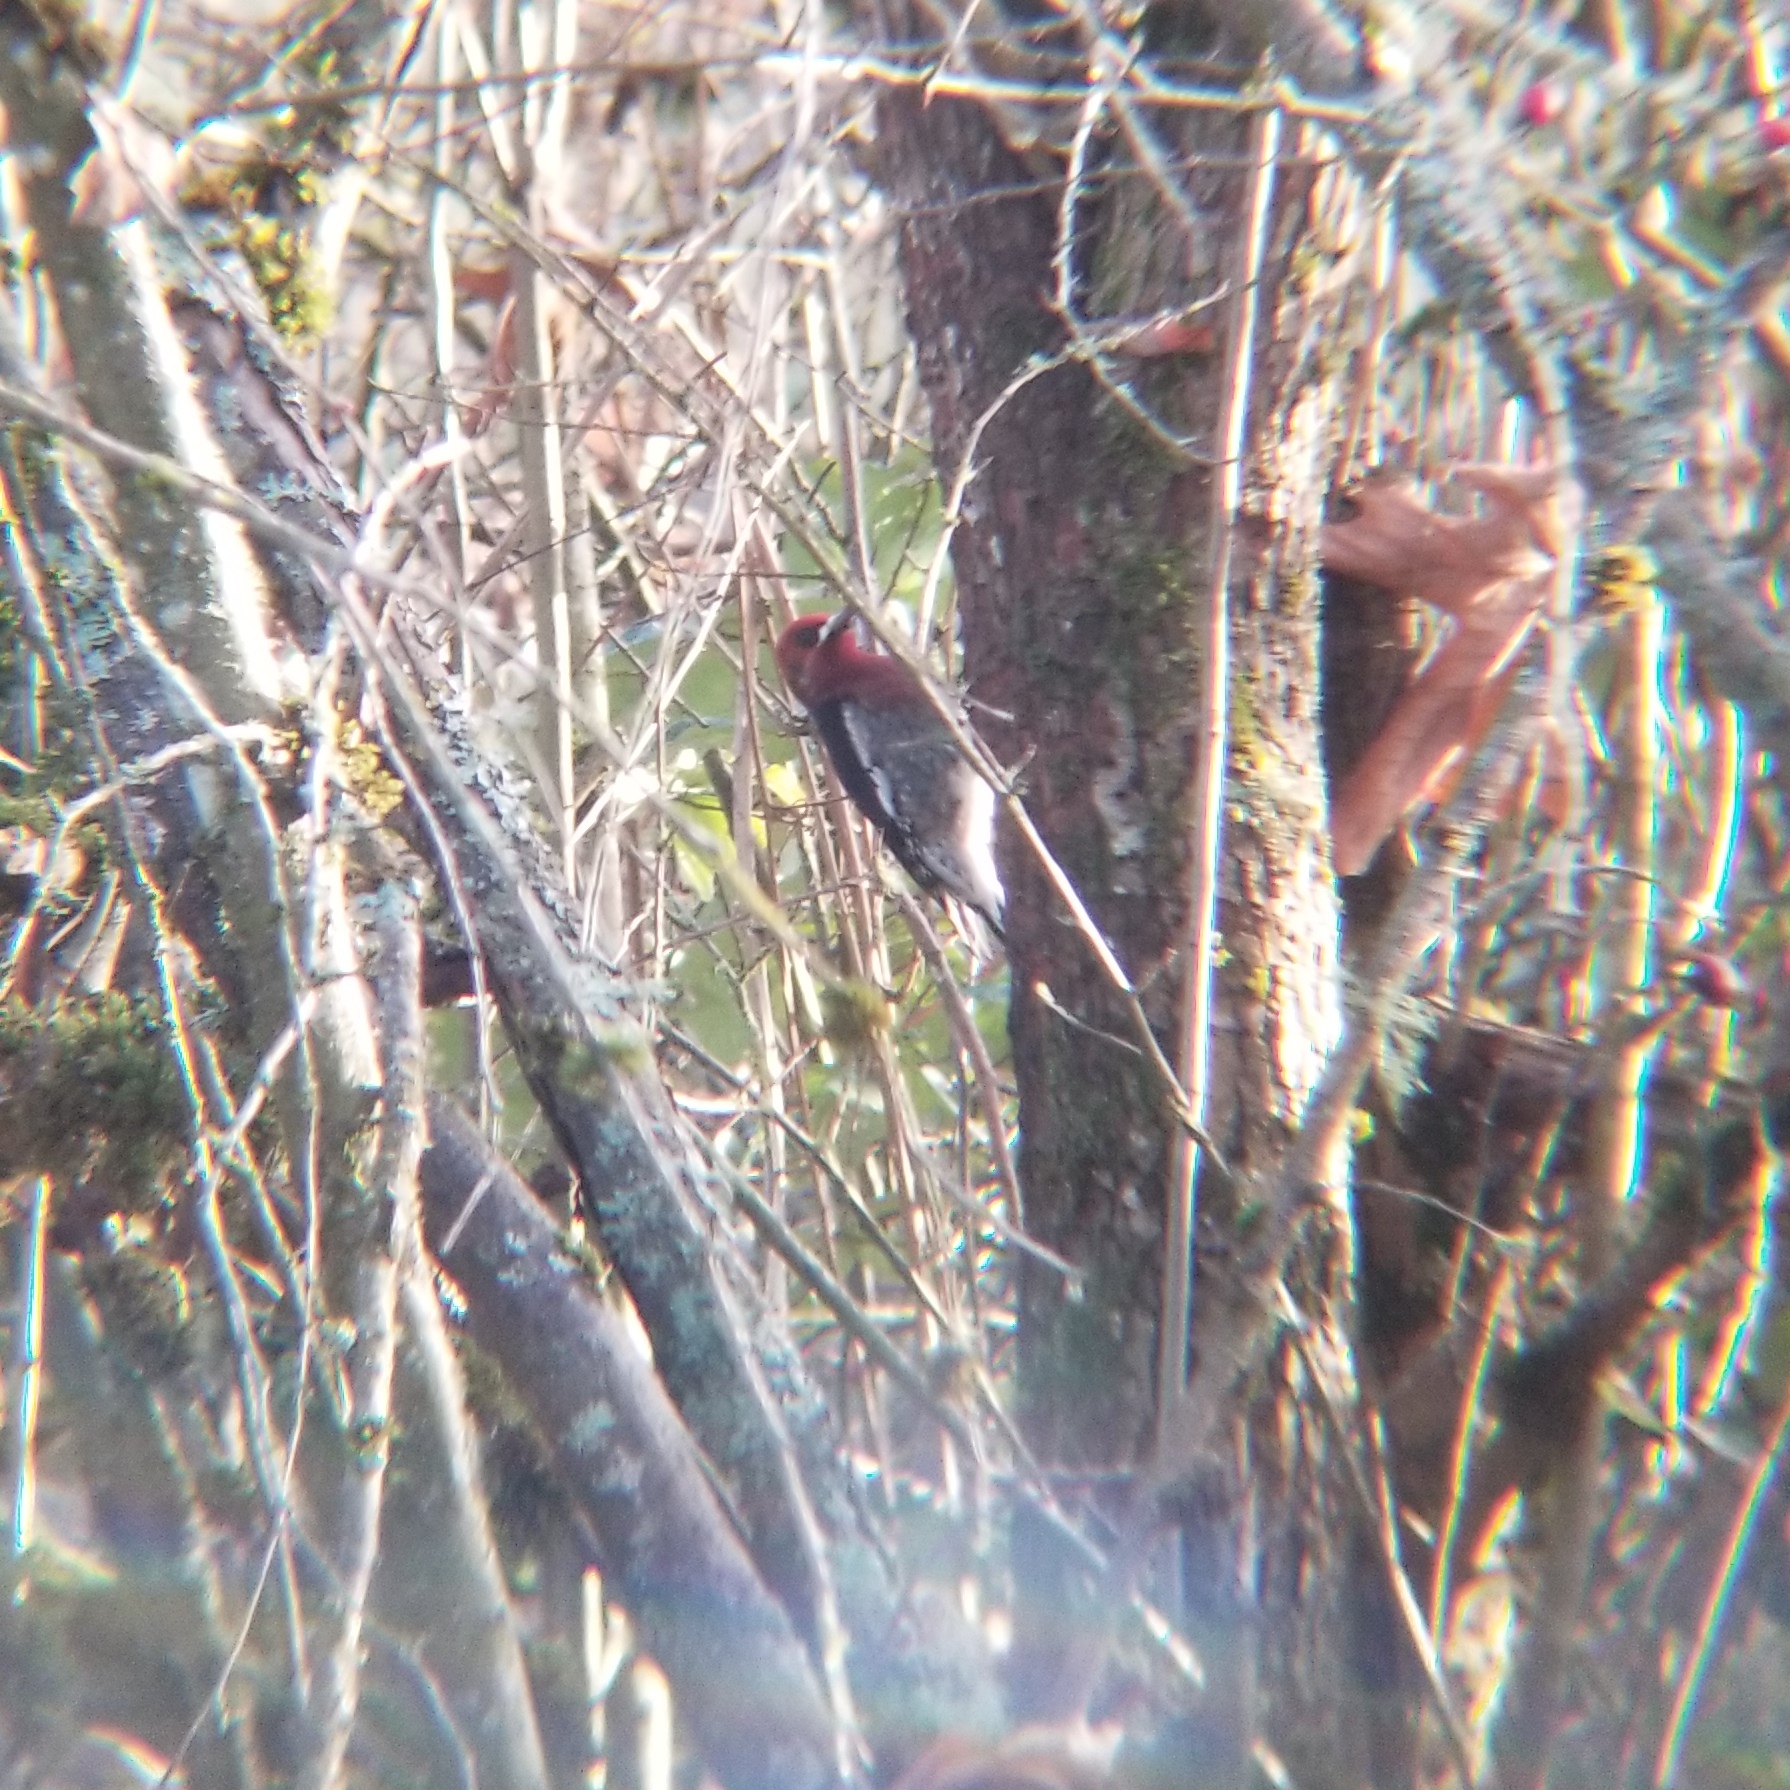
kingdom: Animalia
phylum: Chordata
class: Aves
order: Piciformes
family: Picidae
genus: Sphyrapicus
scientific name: Sphyrapicus ruber
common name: Red-breasted sapsucker
